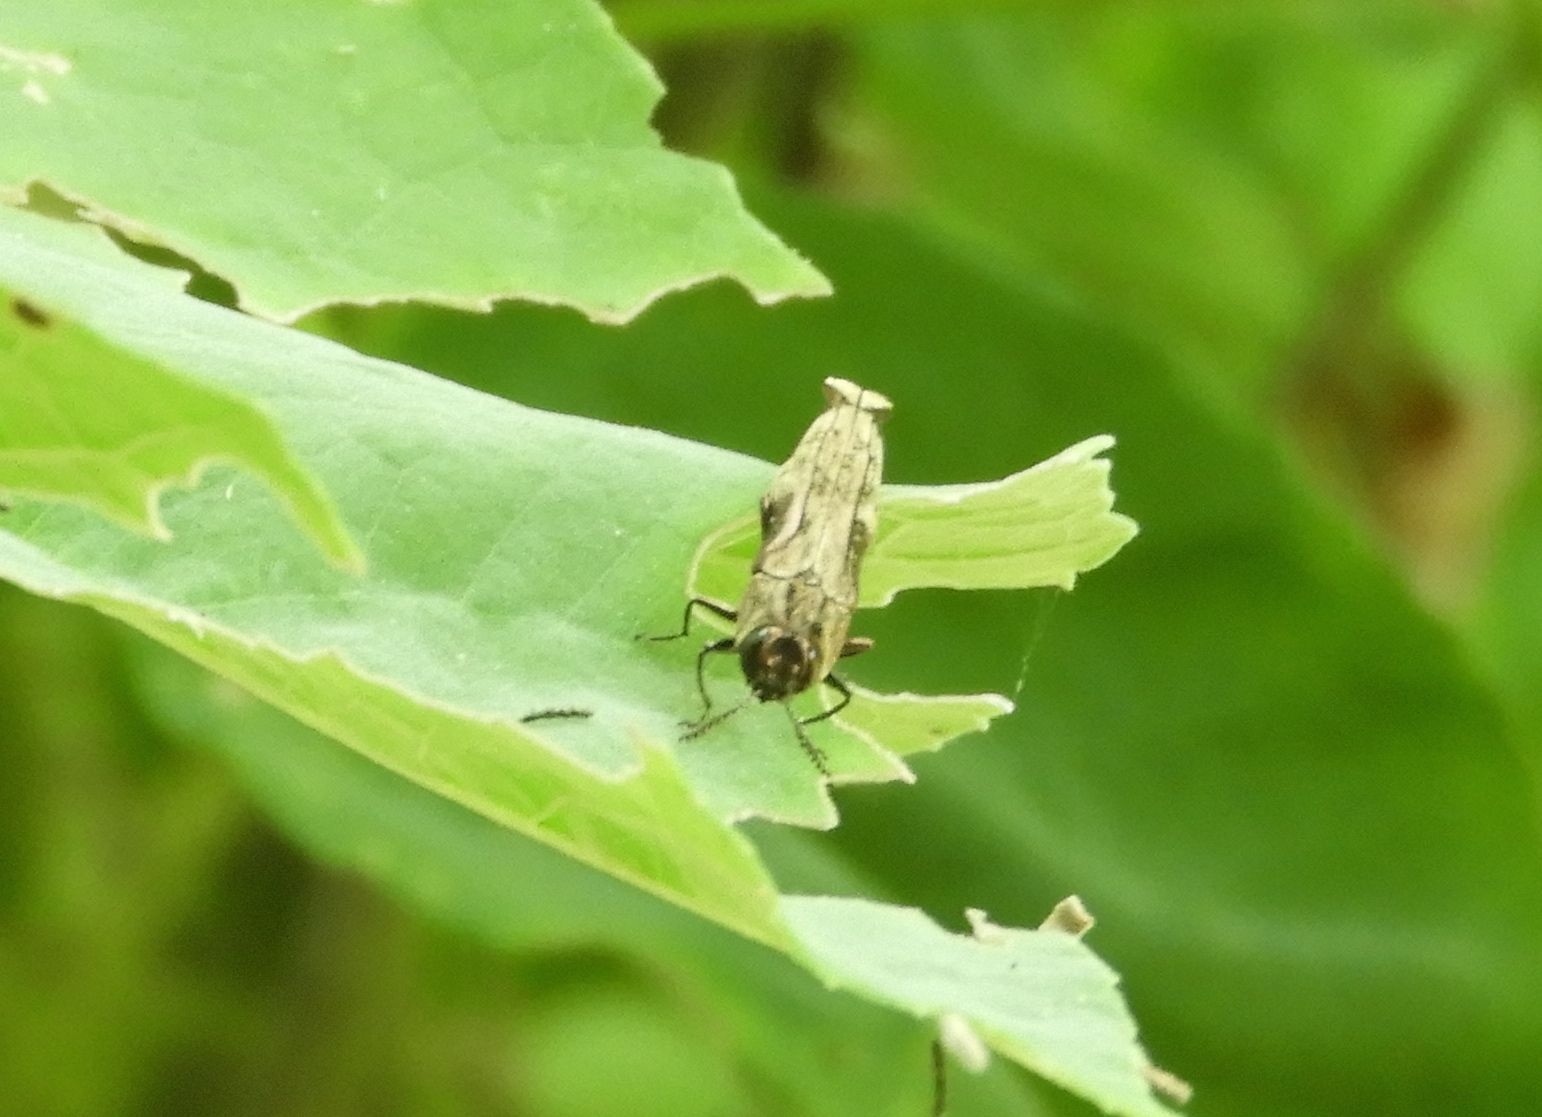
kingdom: Animalia
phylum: Arthropoda
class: Insecta
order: Coleoptera
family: Buprestidae
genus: Agrilus
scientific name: Agrilus langei
